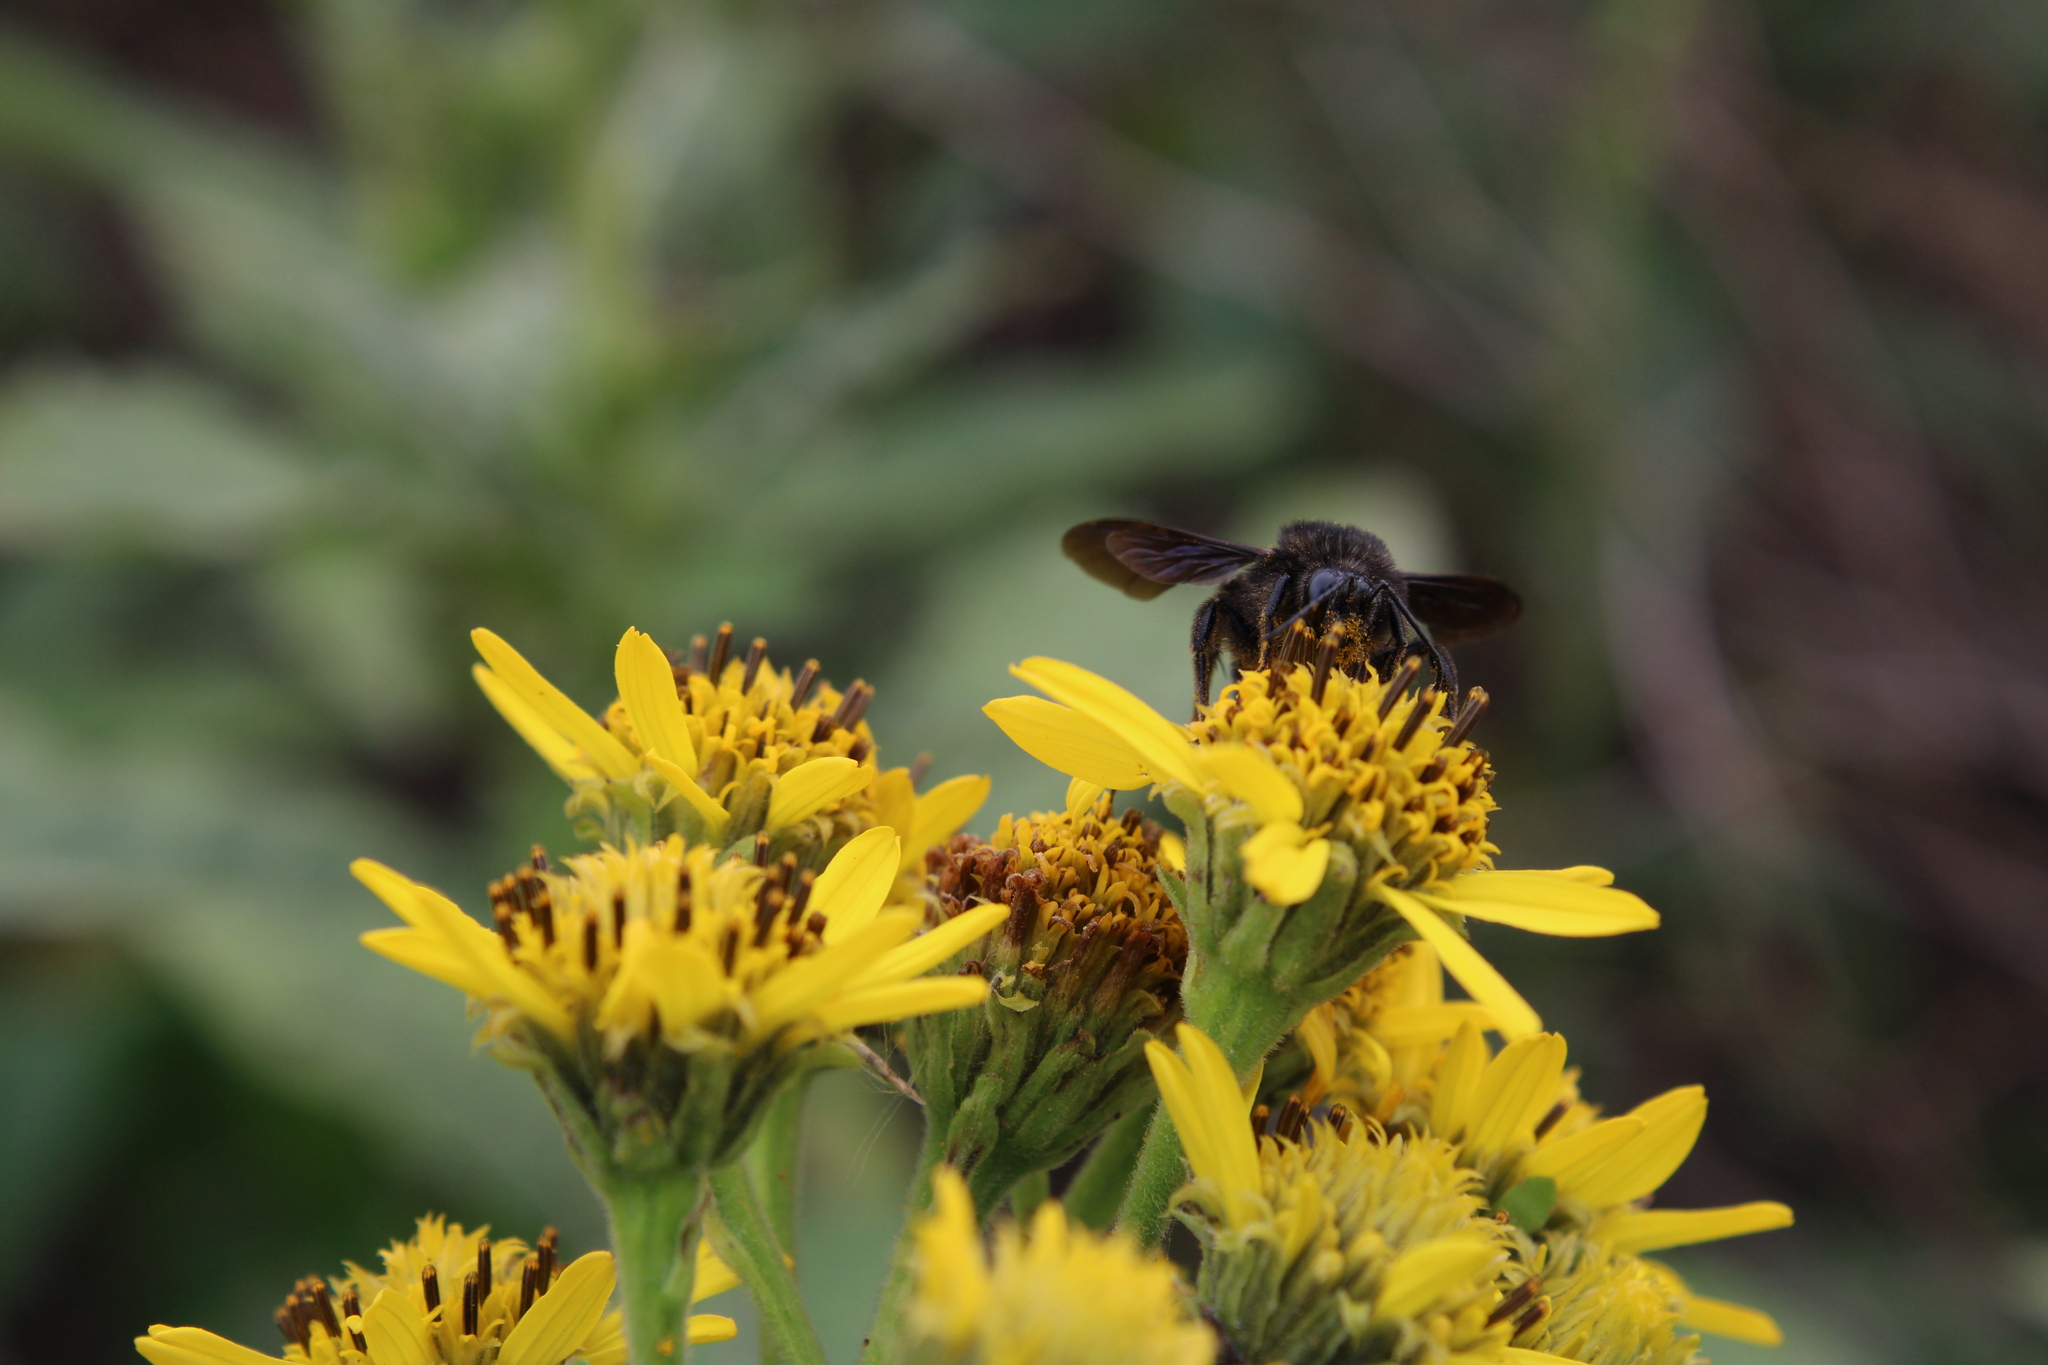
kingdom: Animalia
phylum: Arthropoda
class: Insecta
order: Hymenoptera
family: Apidae
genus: Bombus
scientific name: Bombus pauloensis
